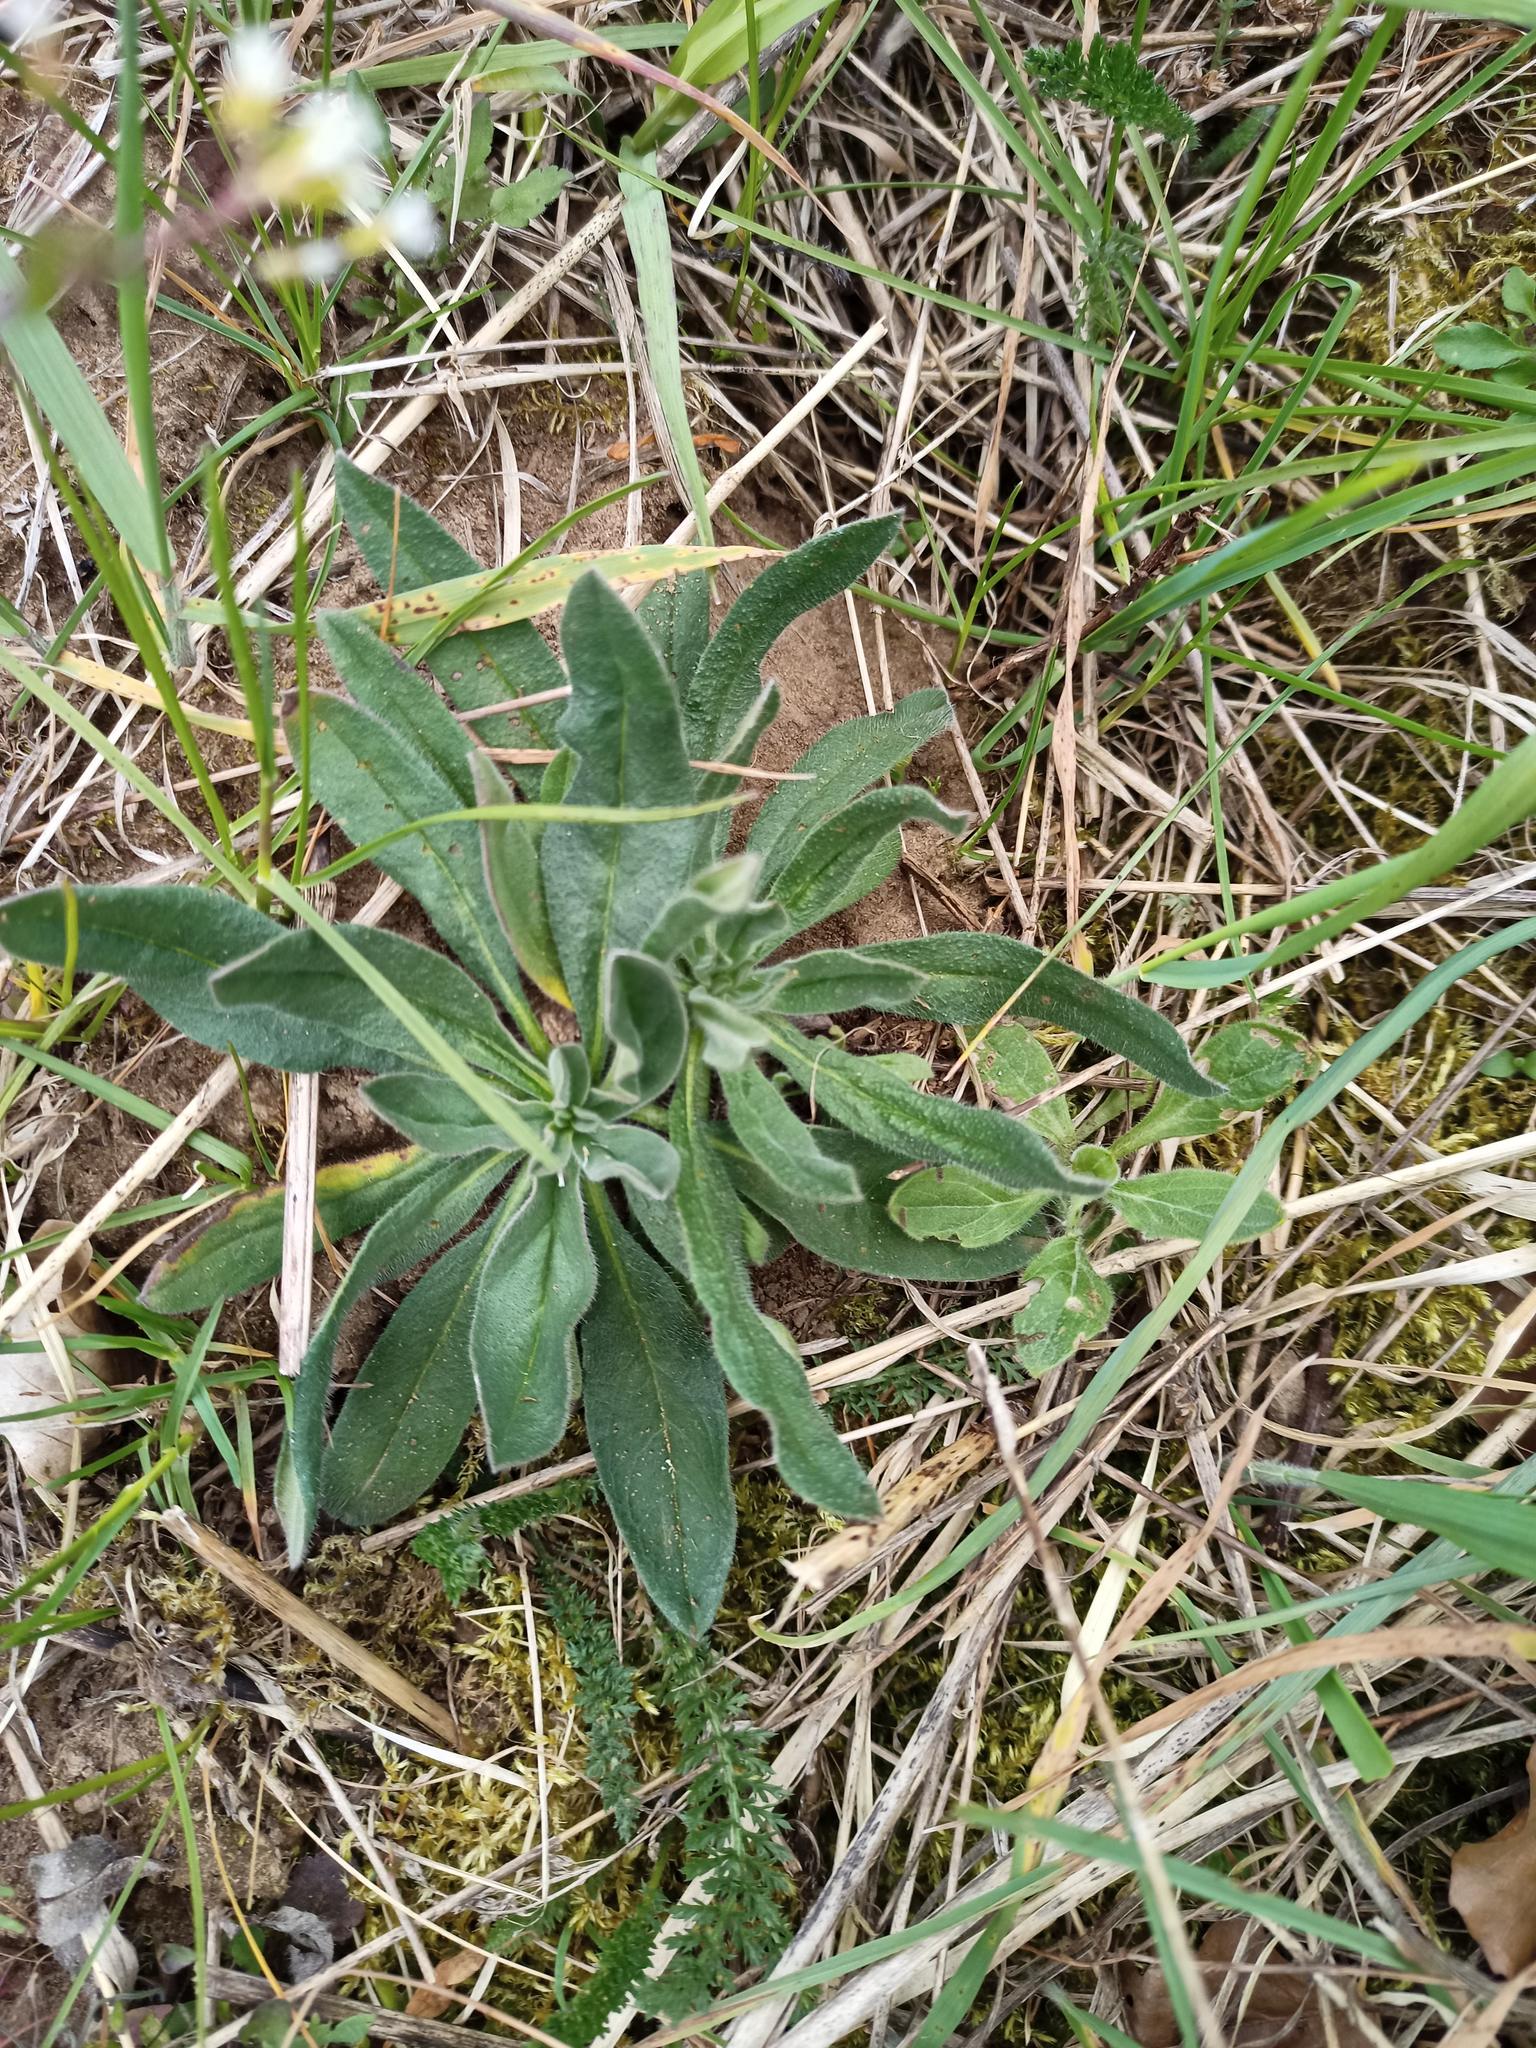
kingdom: Plantae
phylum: Tracheophyta
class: Magnoliopsida
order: Boraginales
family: Boraginaceae
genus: Echium
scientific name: Echium vulgare
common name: Common viper's bugloss
